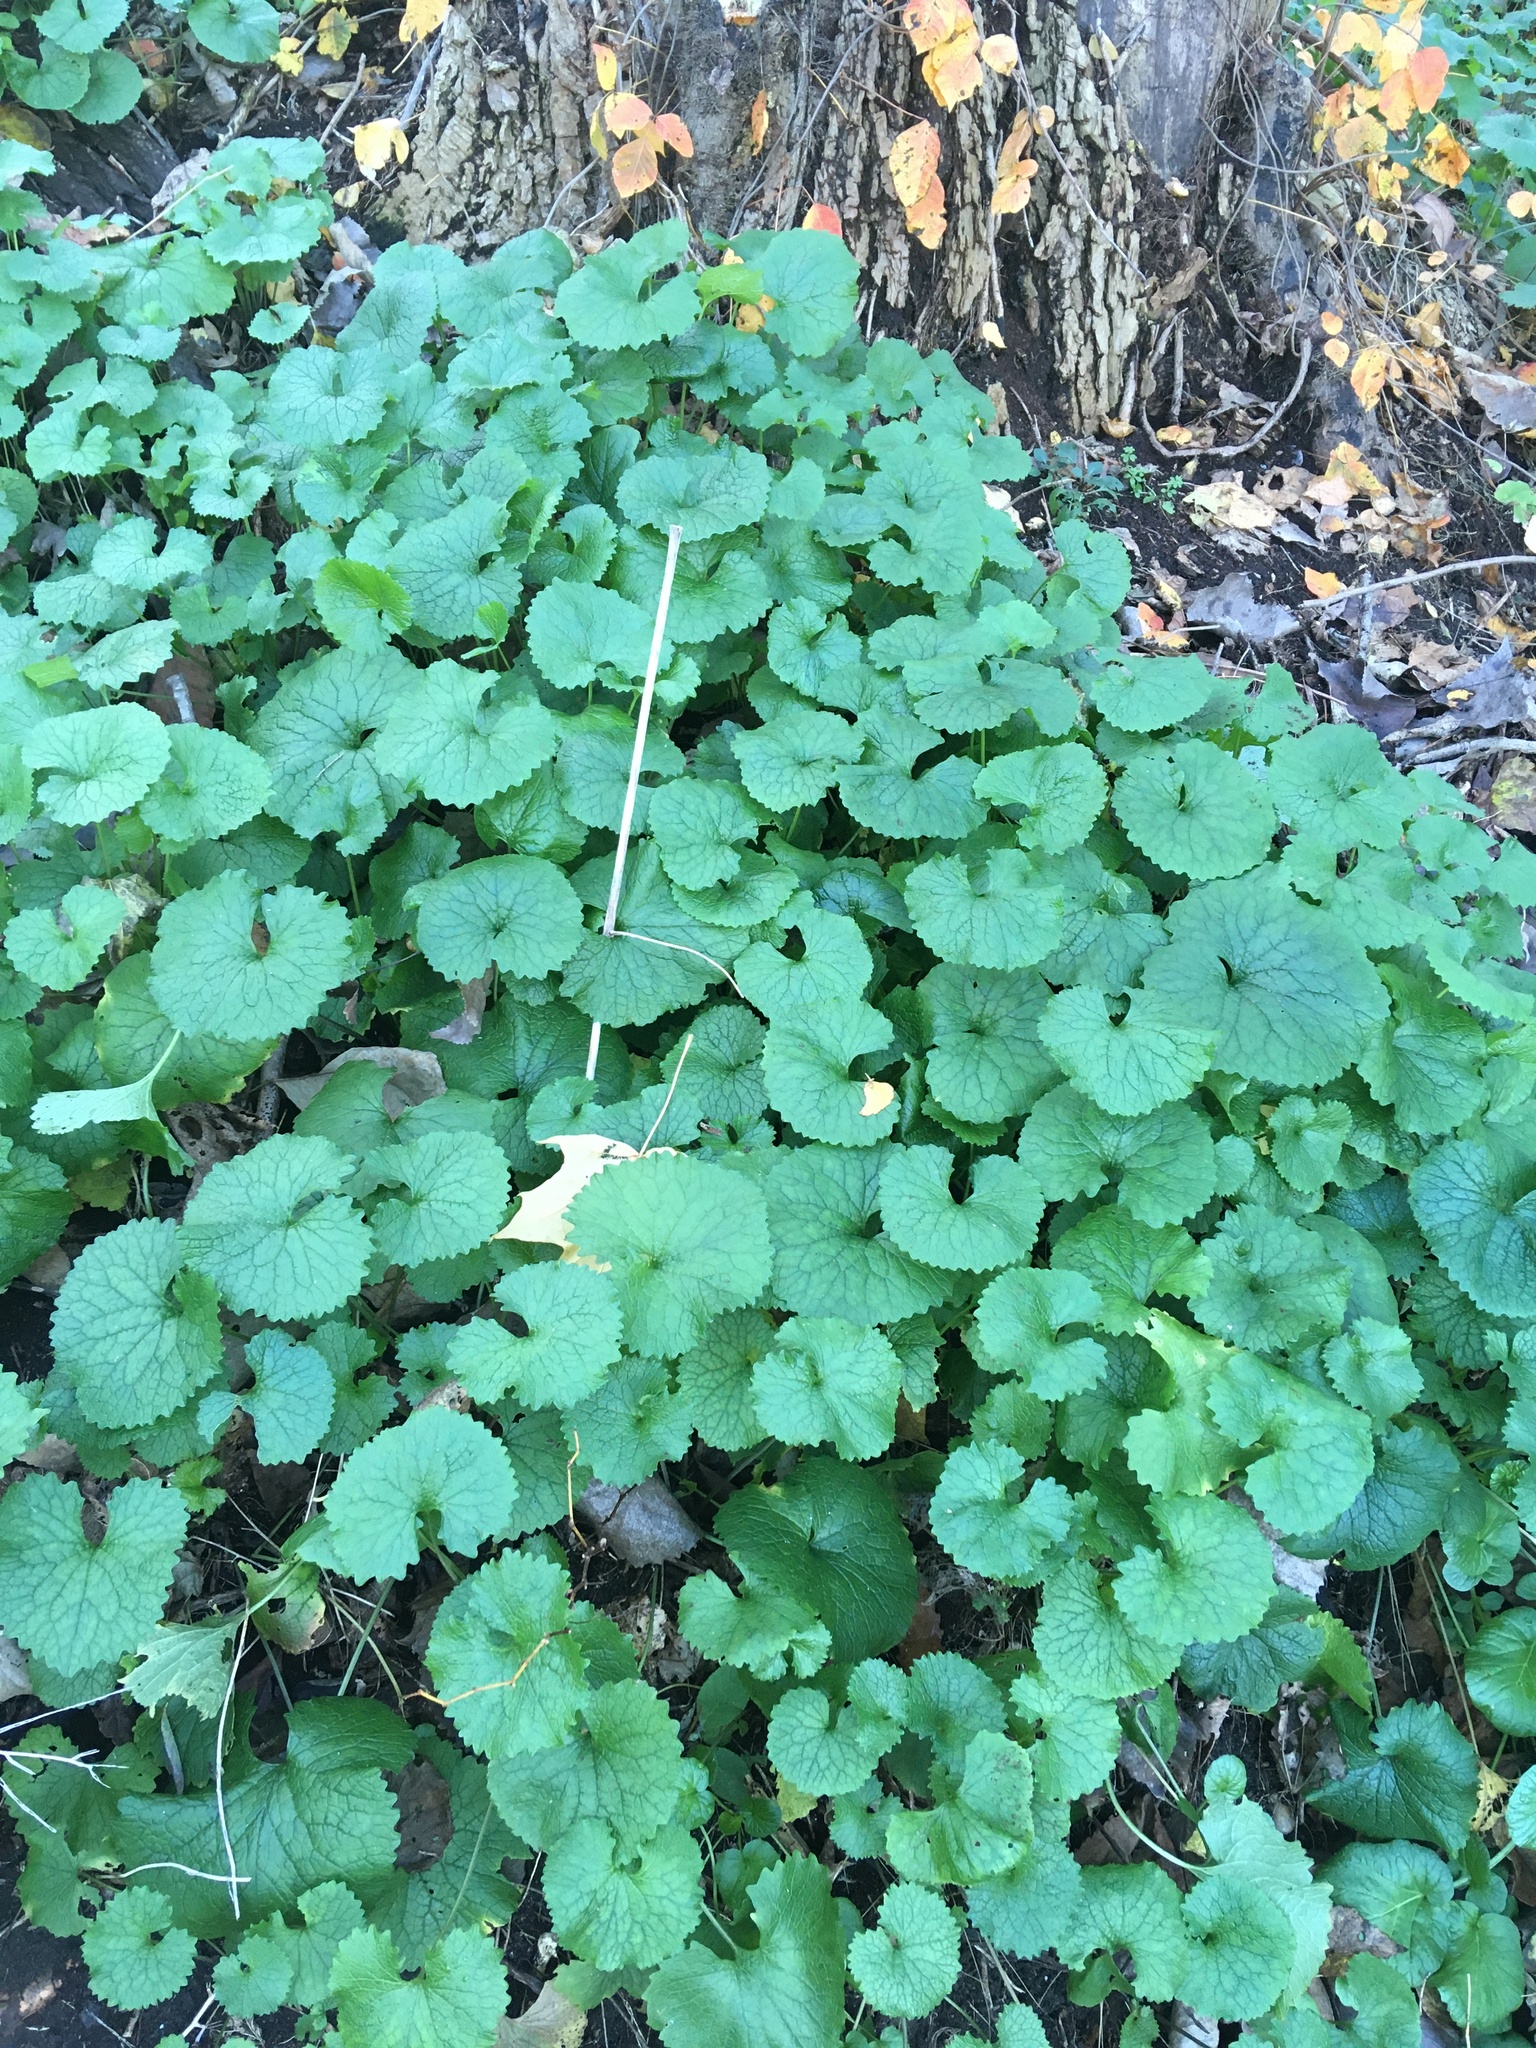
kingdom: Plantae
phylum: Tracheophyta
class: Magnoliopsida
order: Brassicales
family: Brassicaceae
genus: Alliaria
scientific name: Alliaria petiolata
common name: Garlic mustard
